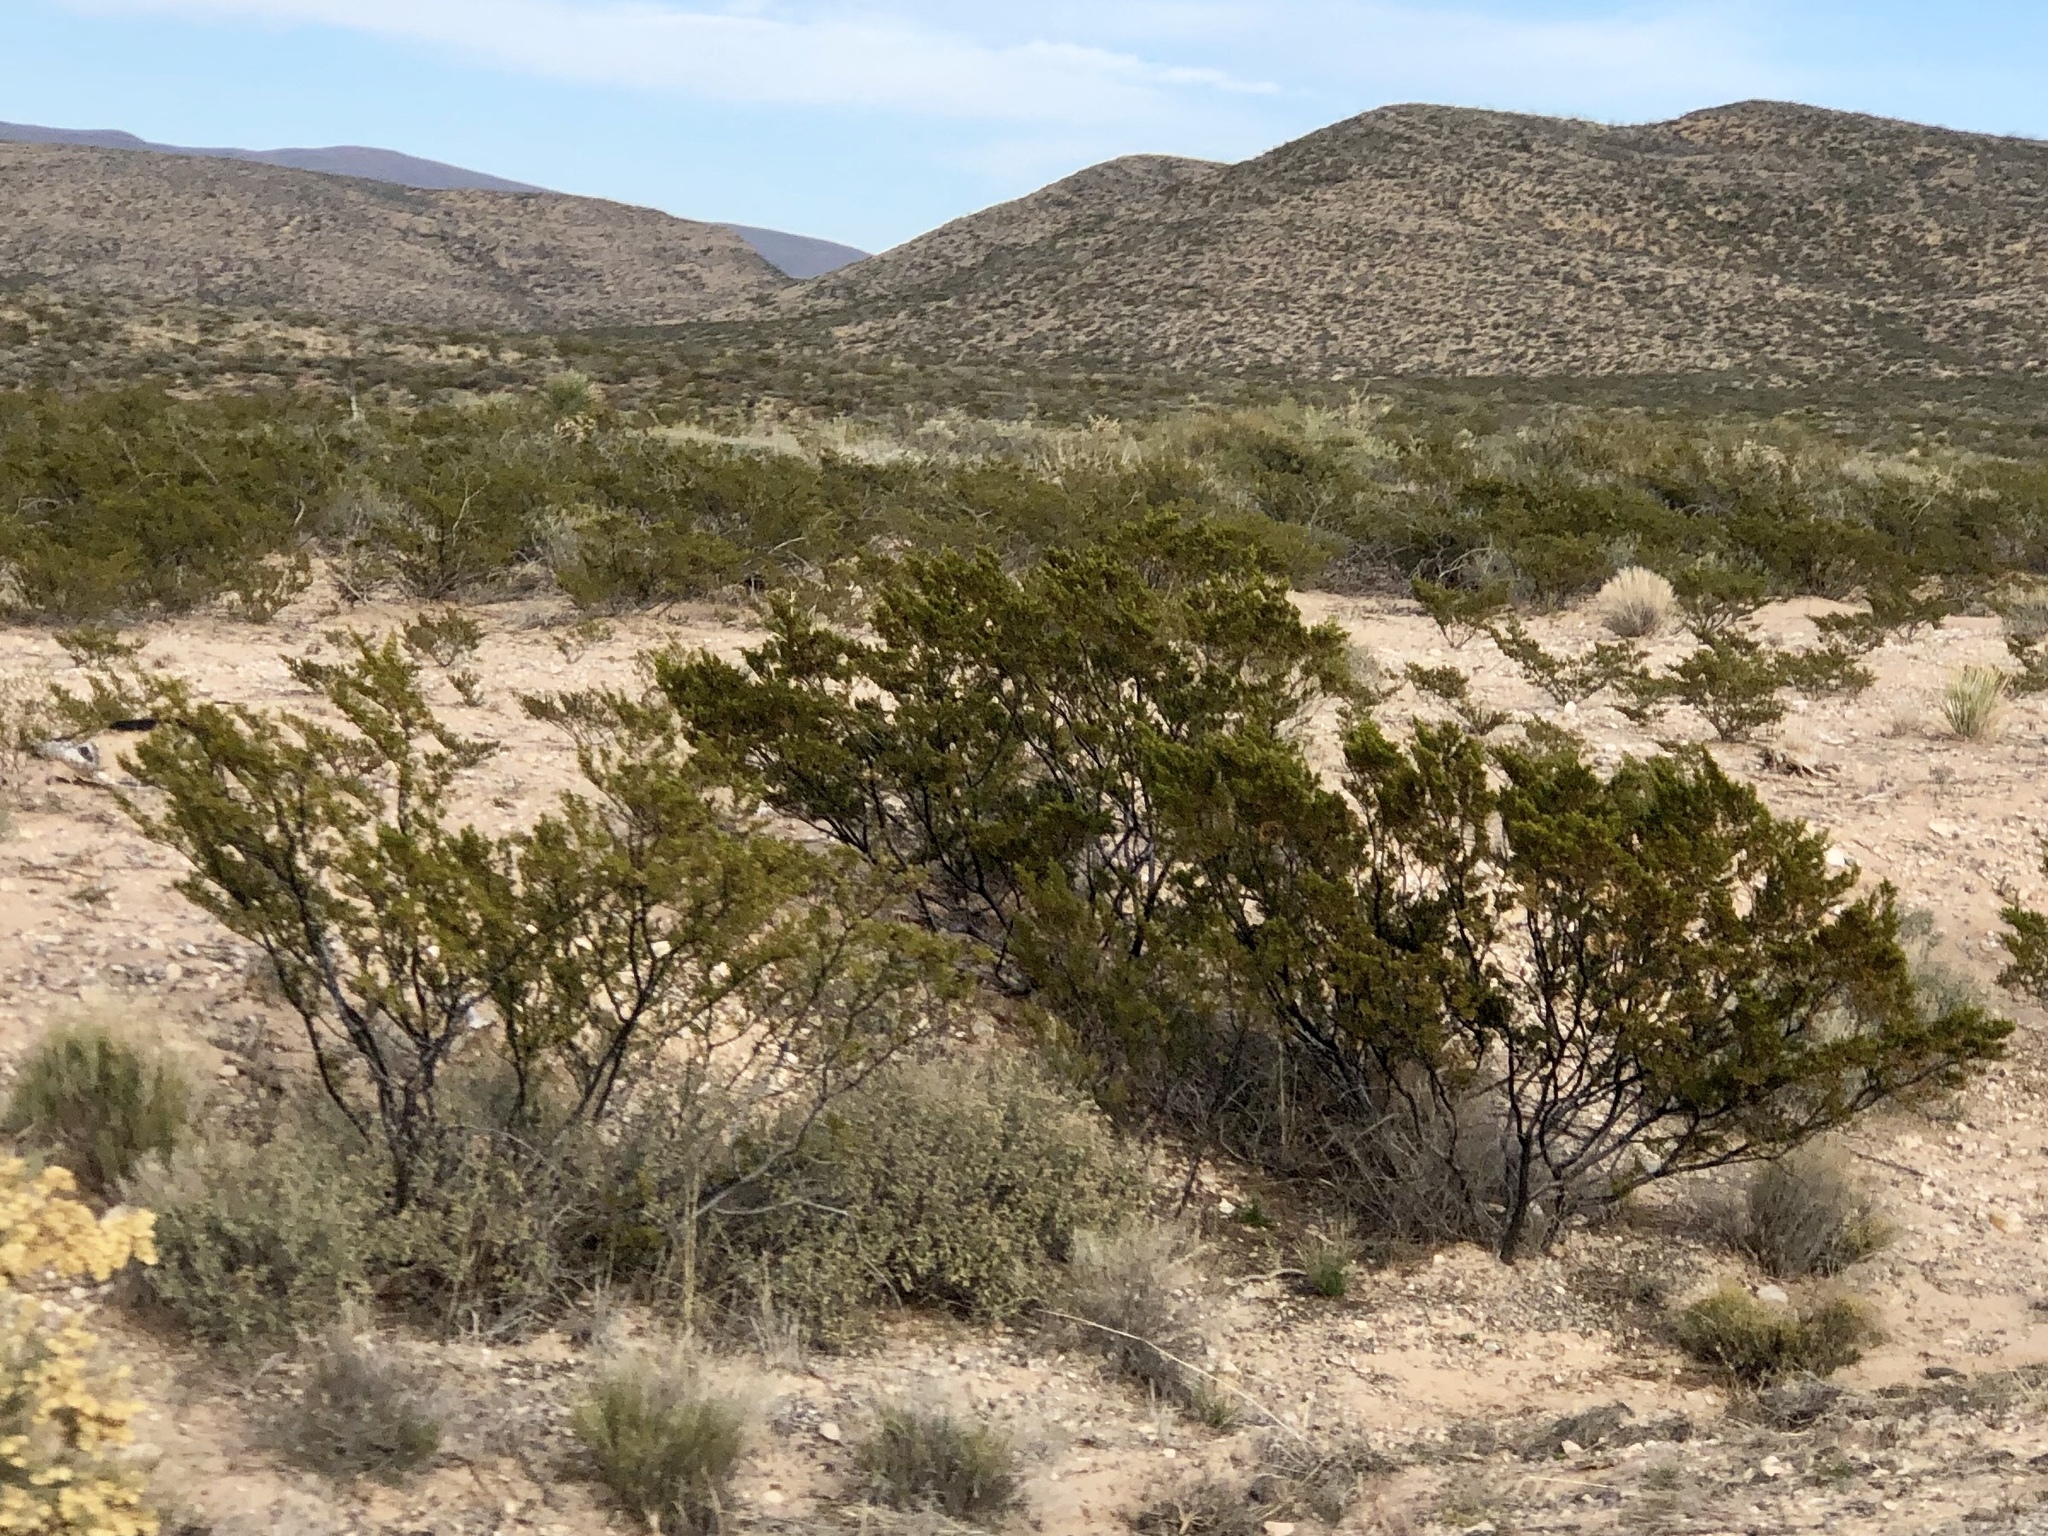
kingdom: Plantae
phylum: Tracheophyta
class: Magnoliopsida
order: Zygophyllales
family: Zygophyllaceae
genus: Larrea
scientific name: Larrea tridentata
